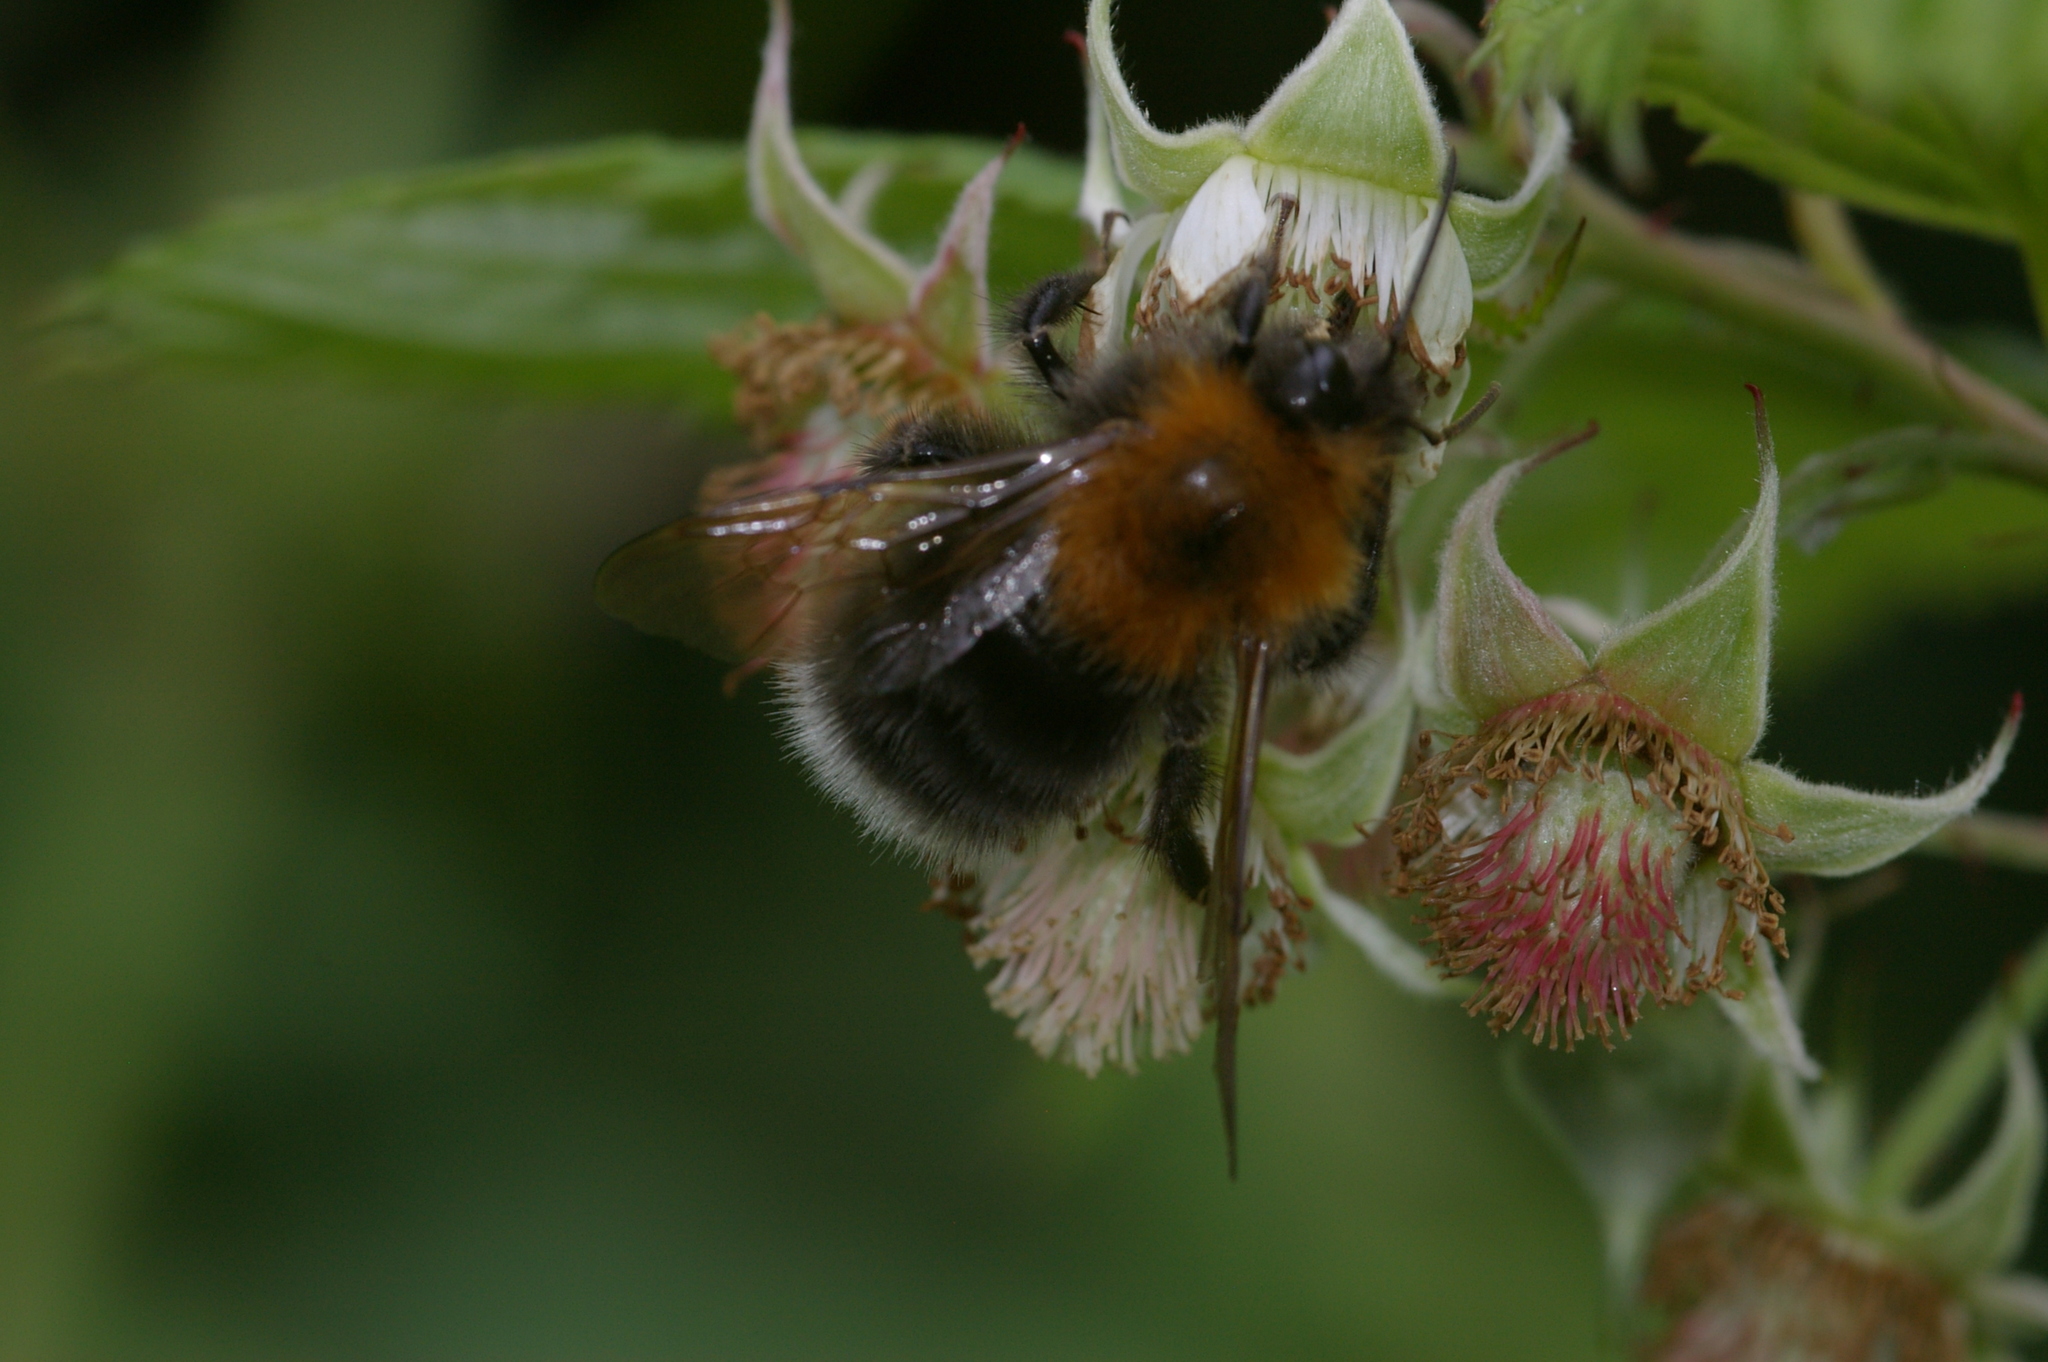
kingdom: Animalia
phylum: Arthropoda
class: Insecta
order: Hymenoptera
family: Apidae
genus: Bombus
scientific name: Bombus hypnorum
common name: New garden bumblebee
